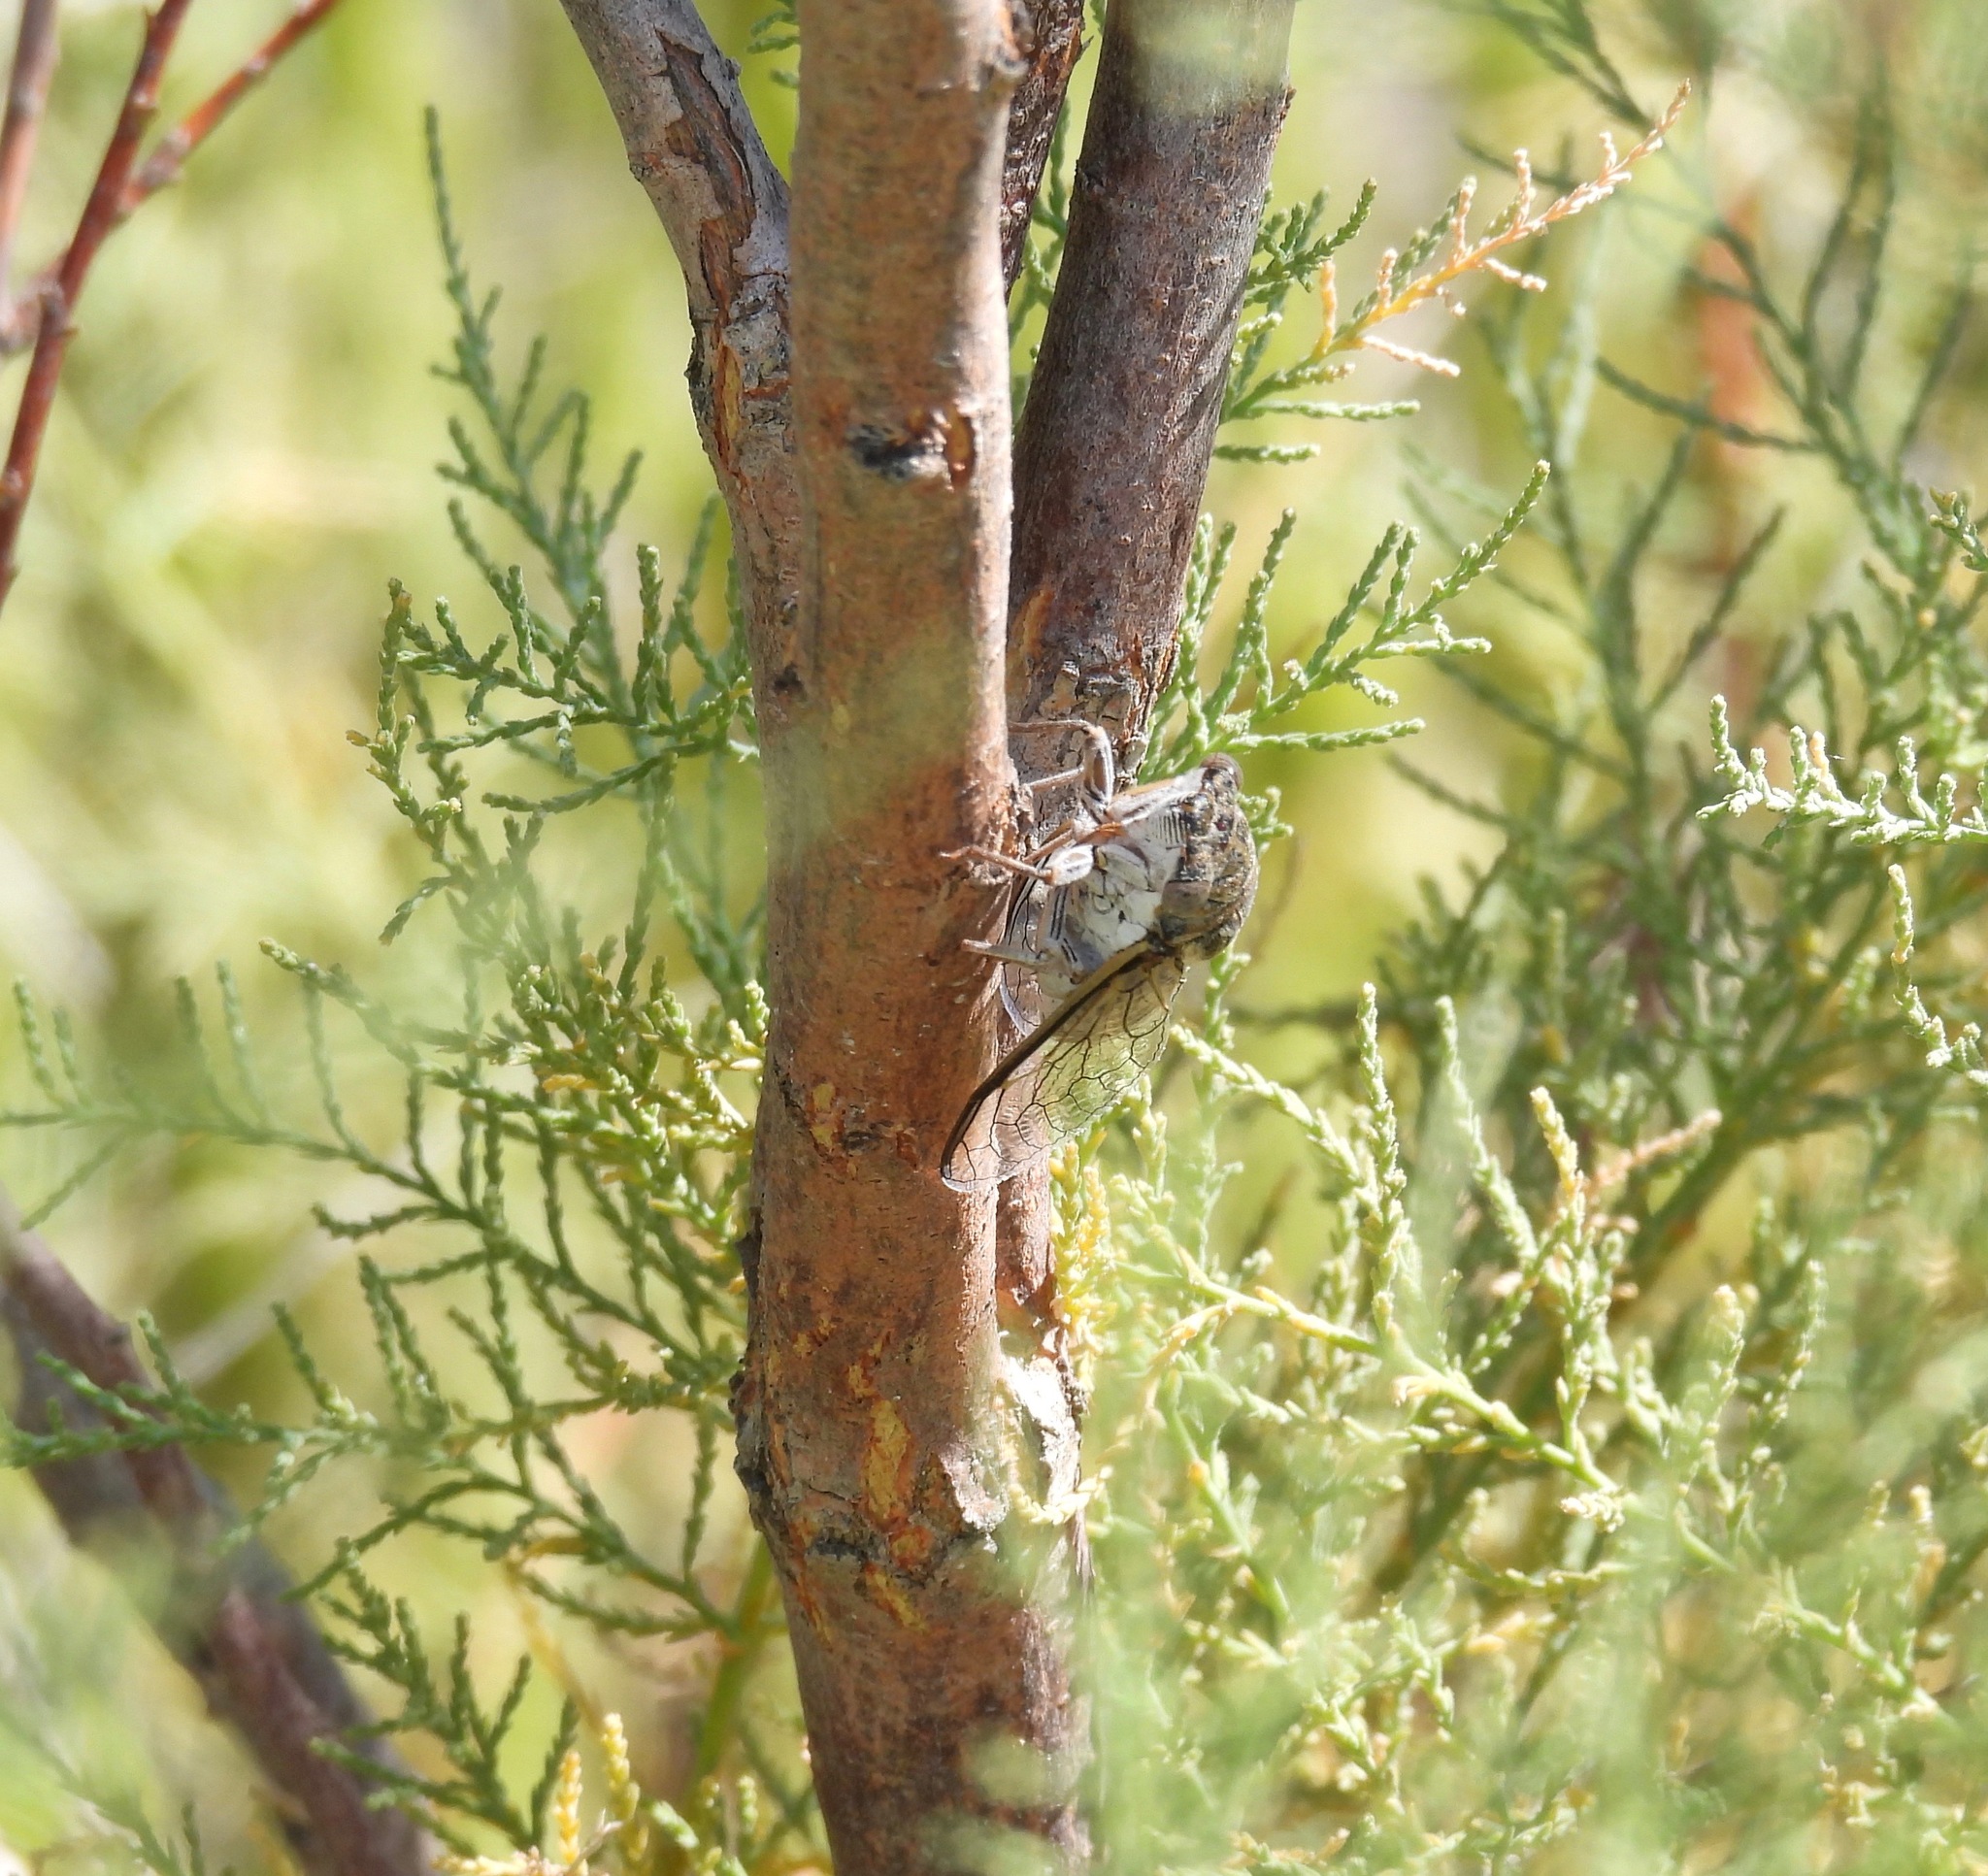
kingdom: Animalia
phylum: Arthropoda
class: Insecta
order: Hemiptera
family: Cicadidae
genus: Diceroprocta
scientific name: Diceroprocta eugraphica
